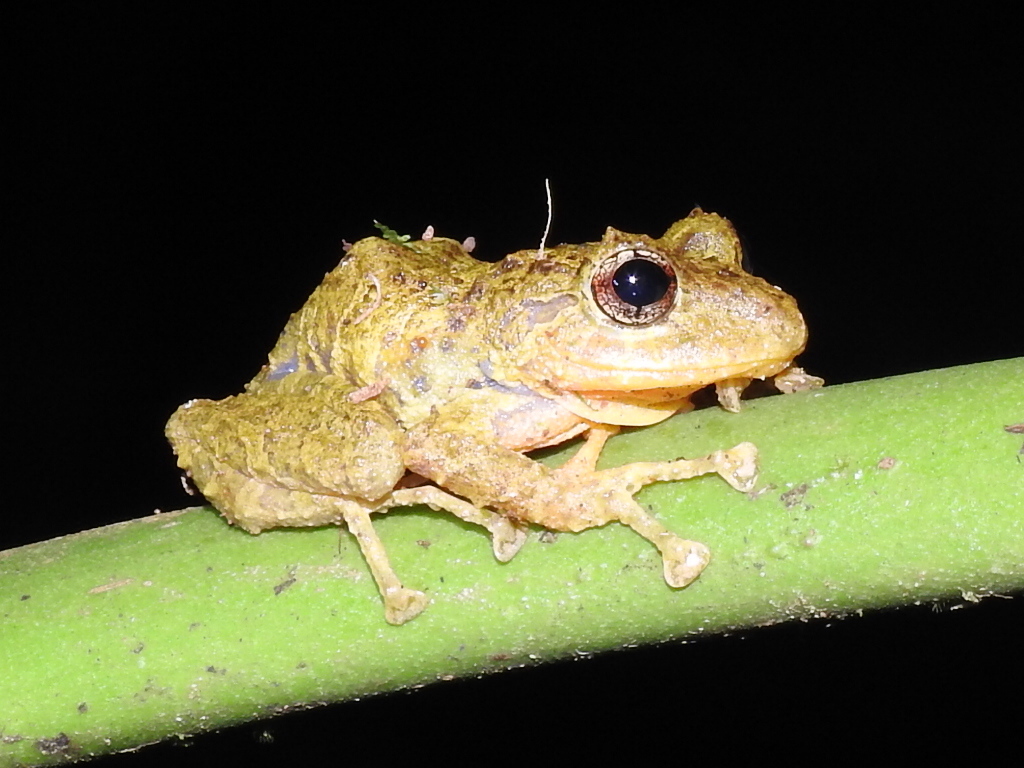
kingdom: Animalia
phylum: Chordata
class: Amphibia
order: Anura
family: Craugastoridae
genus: Pristimantis
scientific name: Pristimantis cruentus
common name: Chiriqui robber frog
